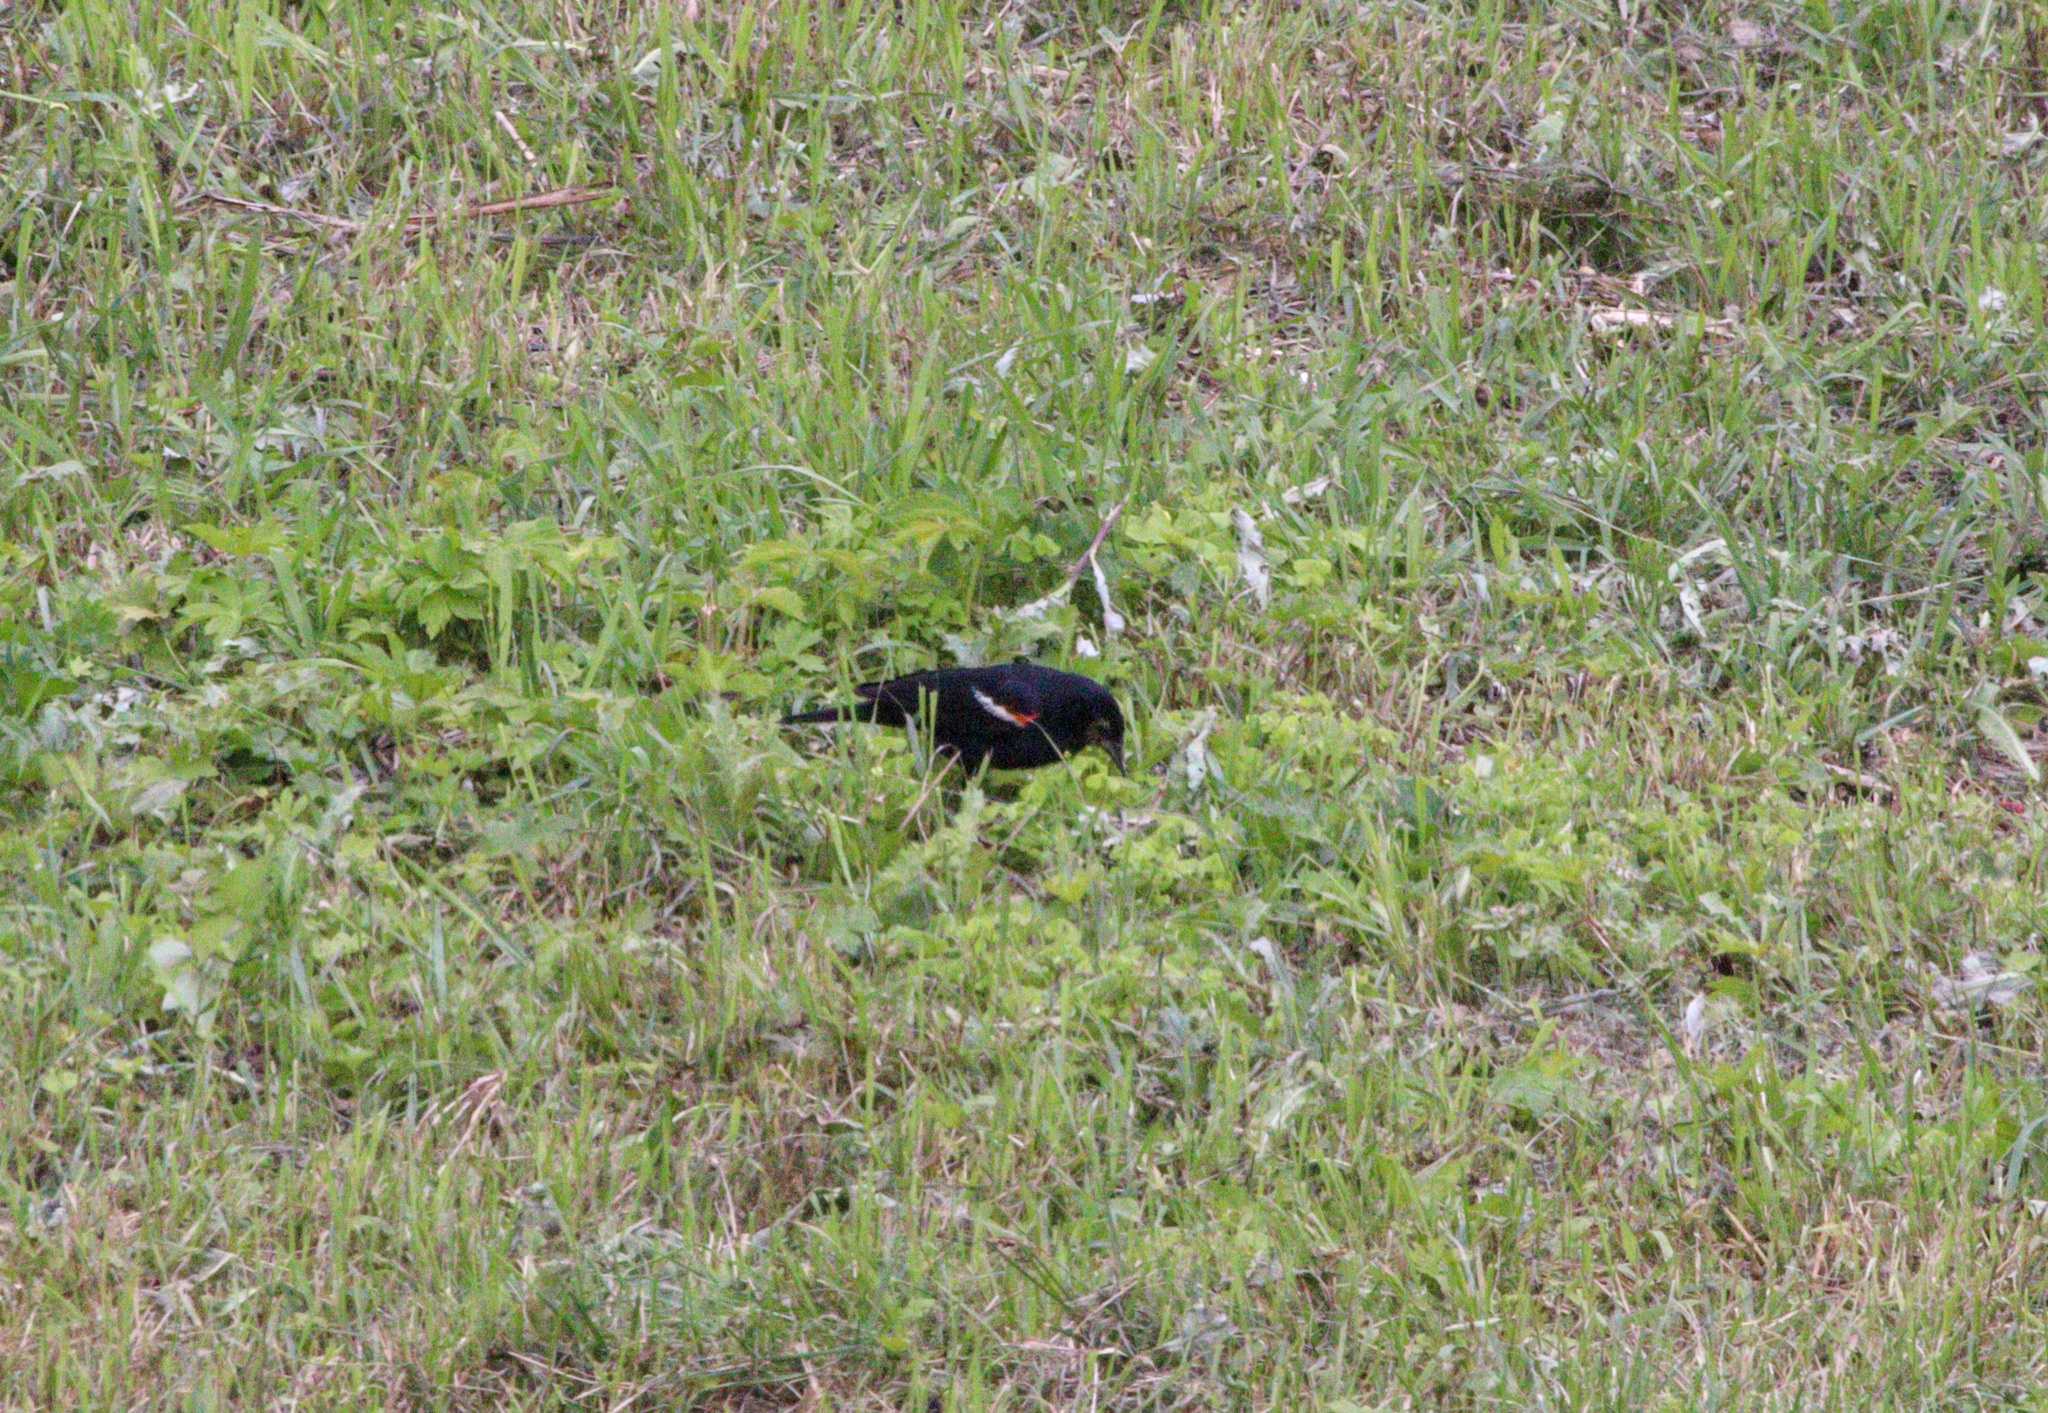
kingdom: Animalia
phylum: Chordata
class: Aves
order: Passeriformes
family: Icteridae
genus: Agelaius
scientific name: Agelaius phoeniceus
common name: Red-winged blackbird
